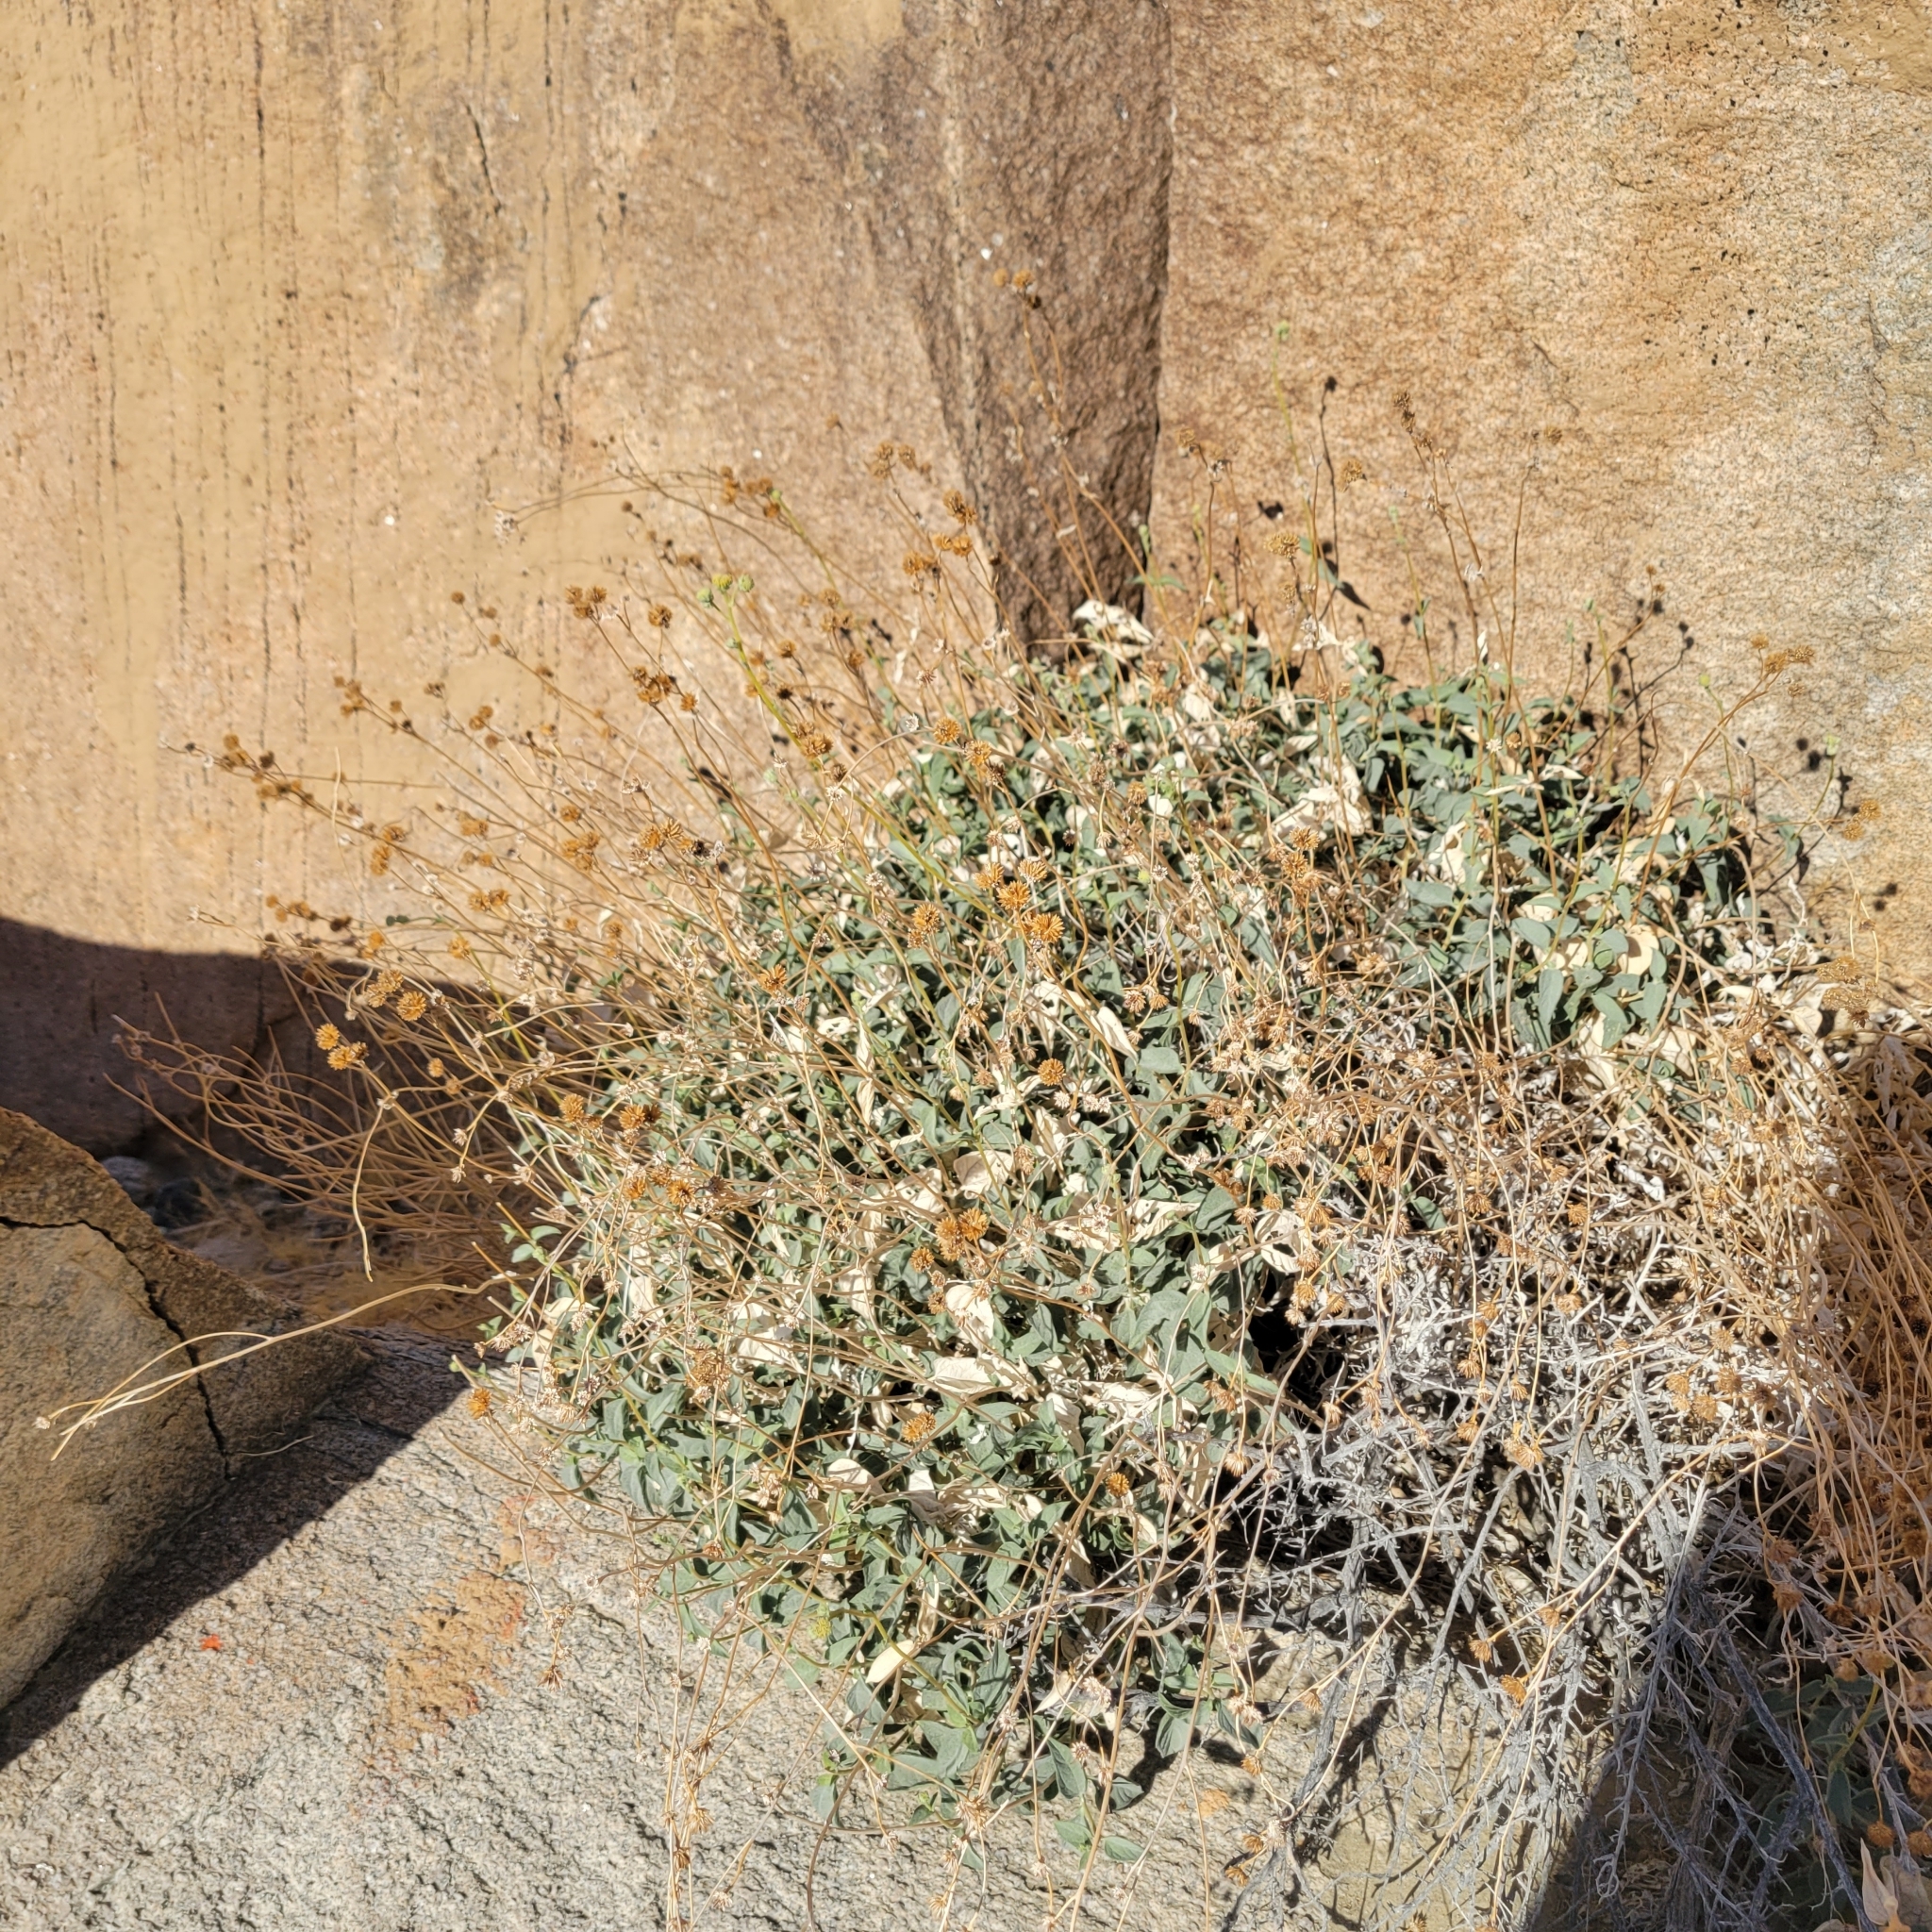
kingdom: Plantae
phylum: Tracheophyta
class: Magnoliopsida
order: Asterales
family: Asteraceae
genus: Bahiopsis
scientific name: Bahiopsis reticulata
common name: Death valley goldeneye
